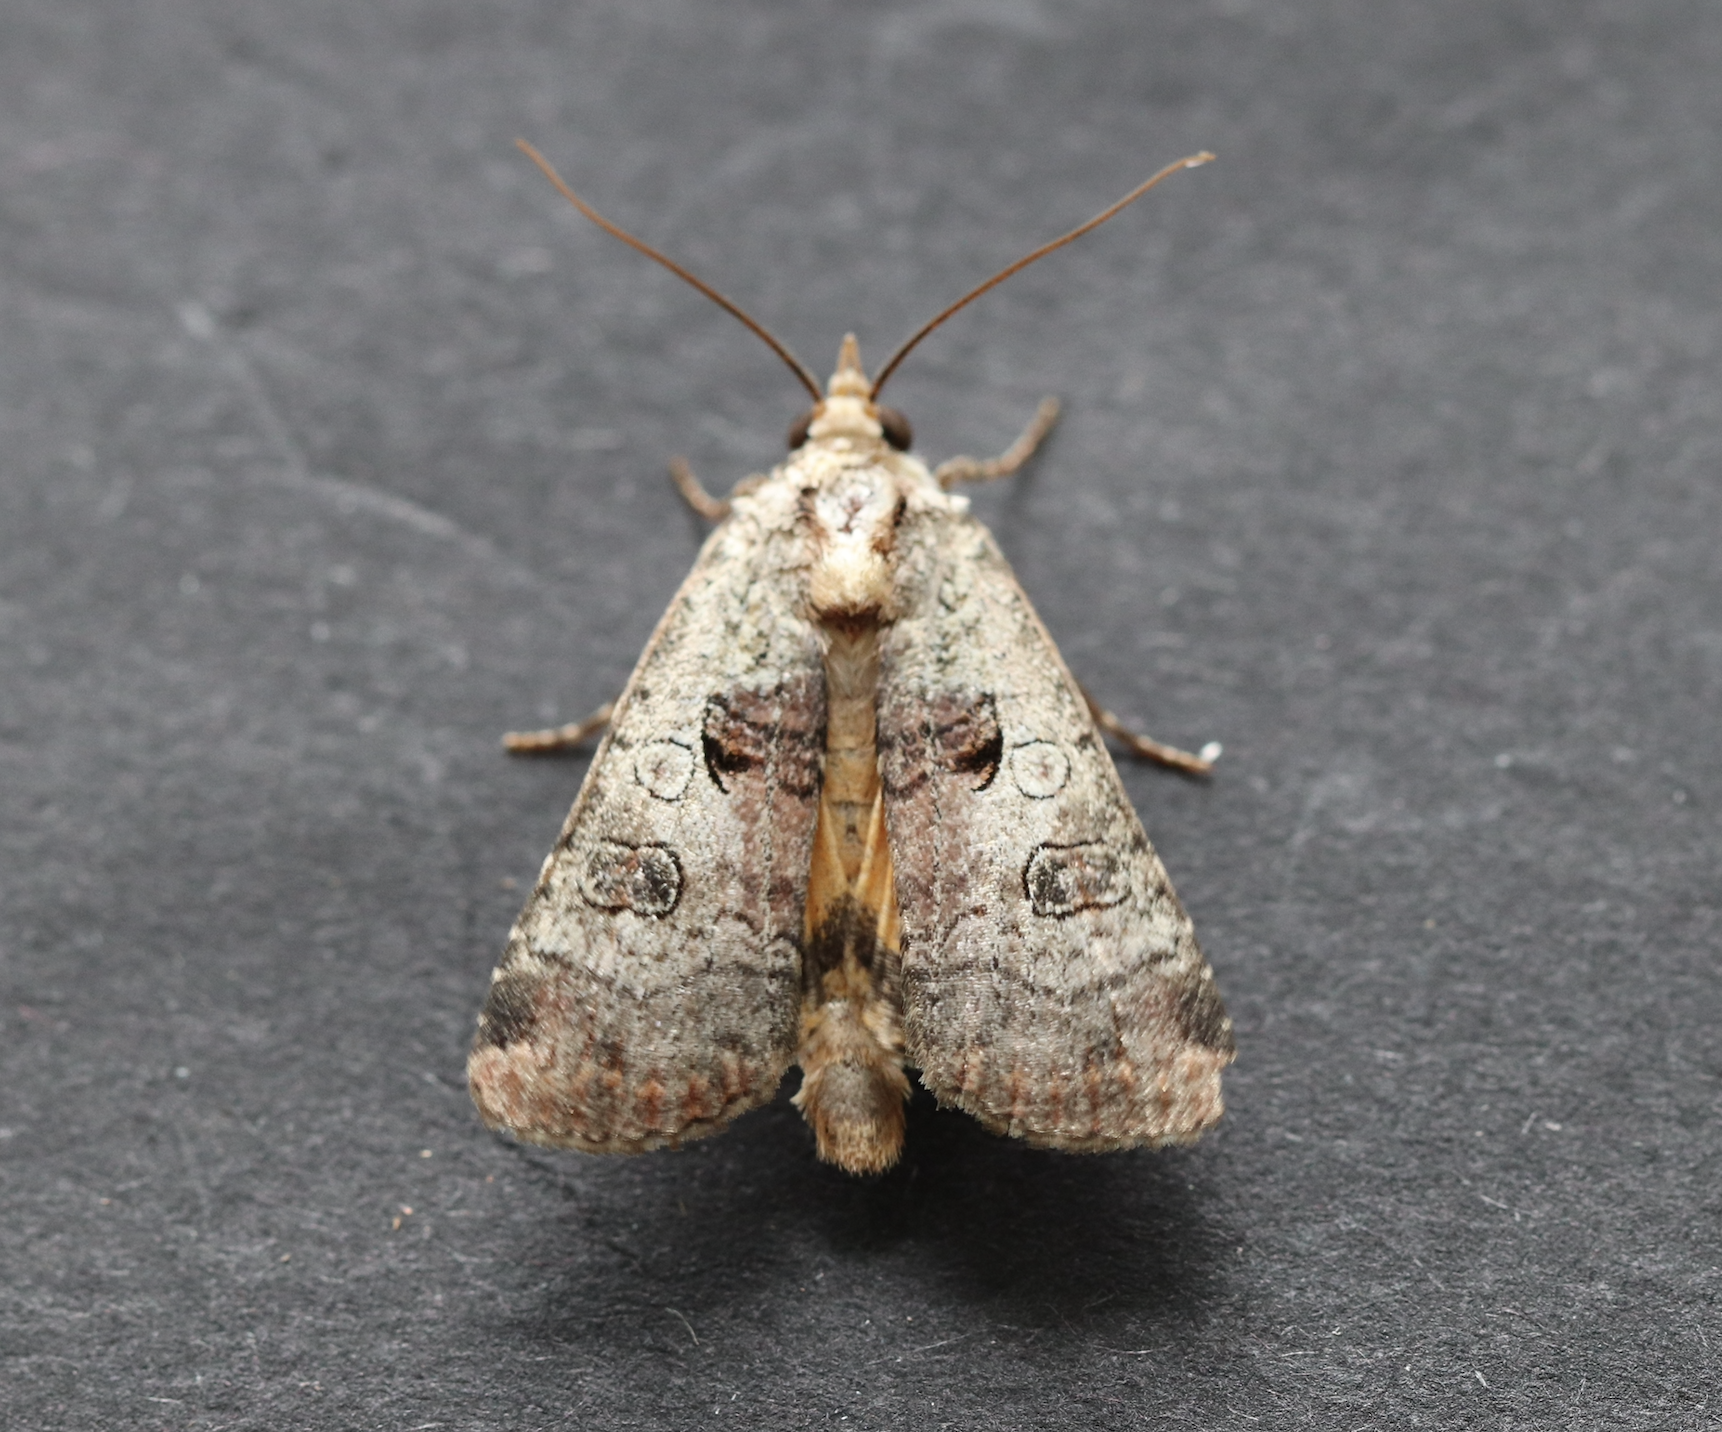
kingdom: Animalia
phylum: Arthropoda
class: Insecta
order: Lepidoptera
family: Noctuidae
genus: Epilecta
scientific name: Epilecta linogrisea
